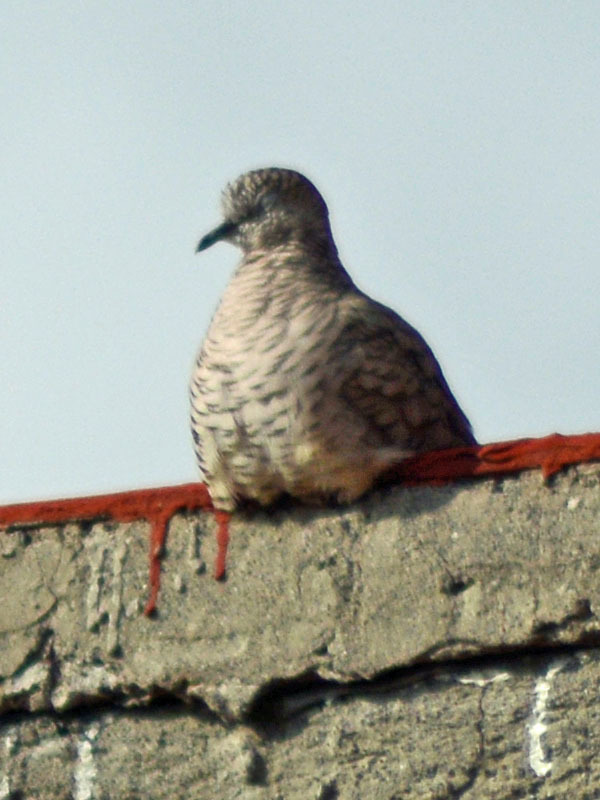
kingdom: Animalia
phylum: Chordata
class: Aves
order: Columbiformes
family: Columbidae
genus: Columbina
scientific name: Columbina inca
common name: Inca dove
